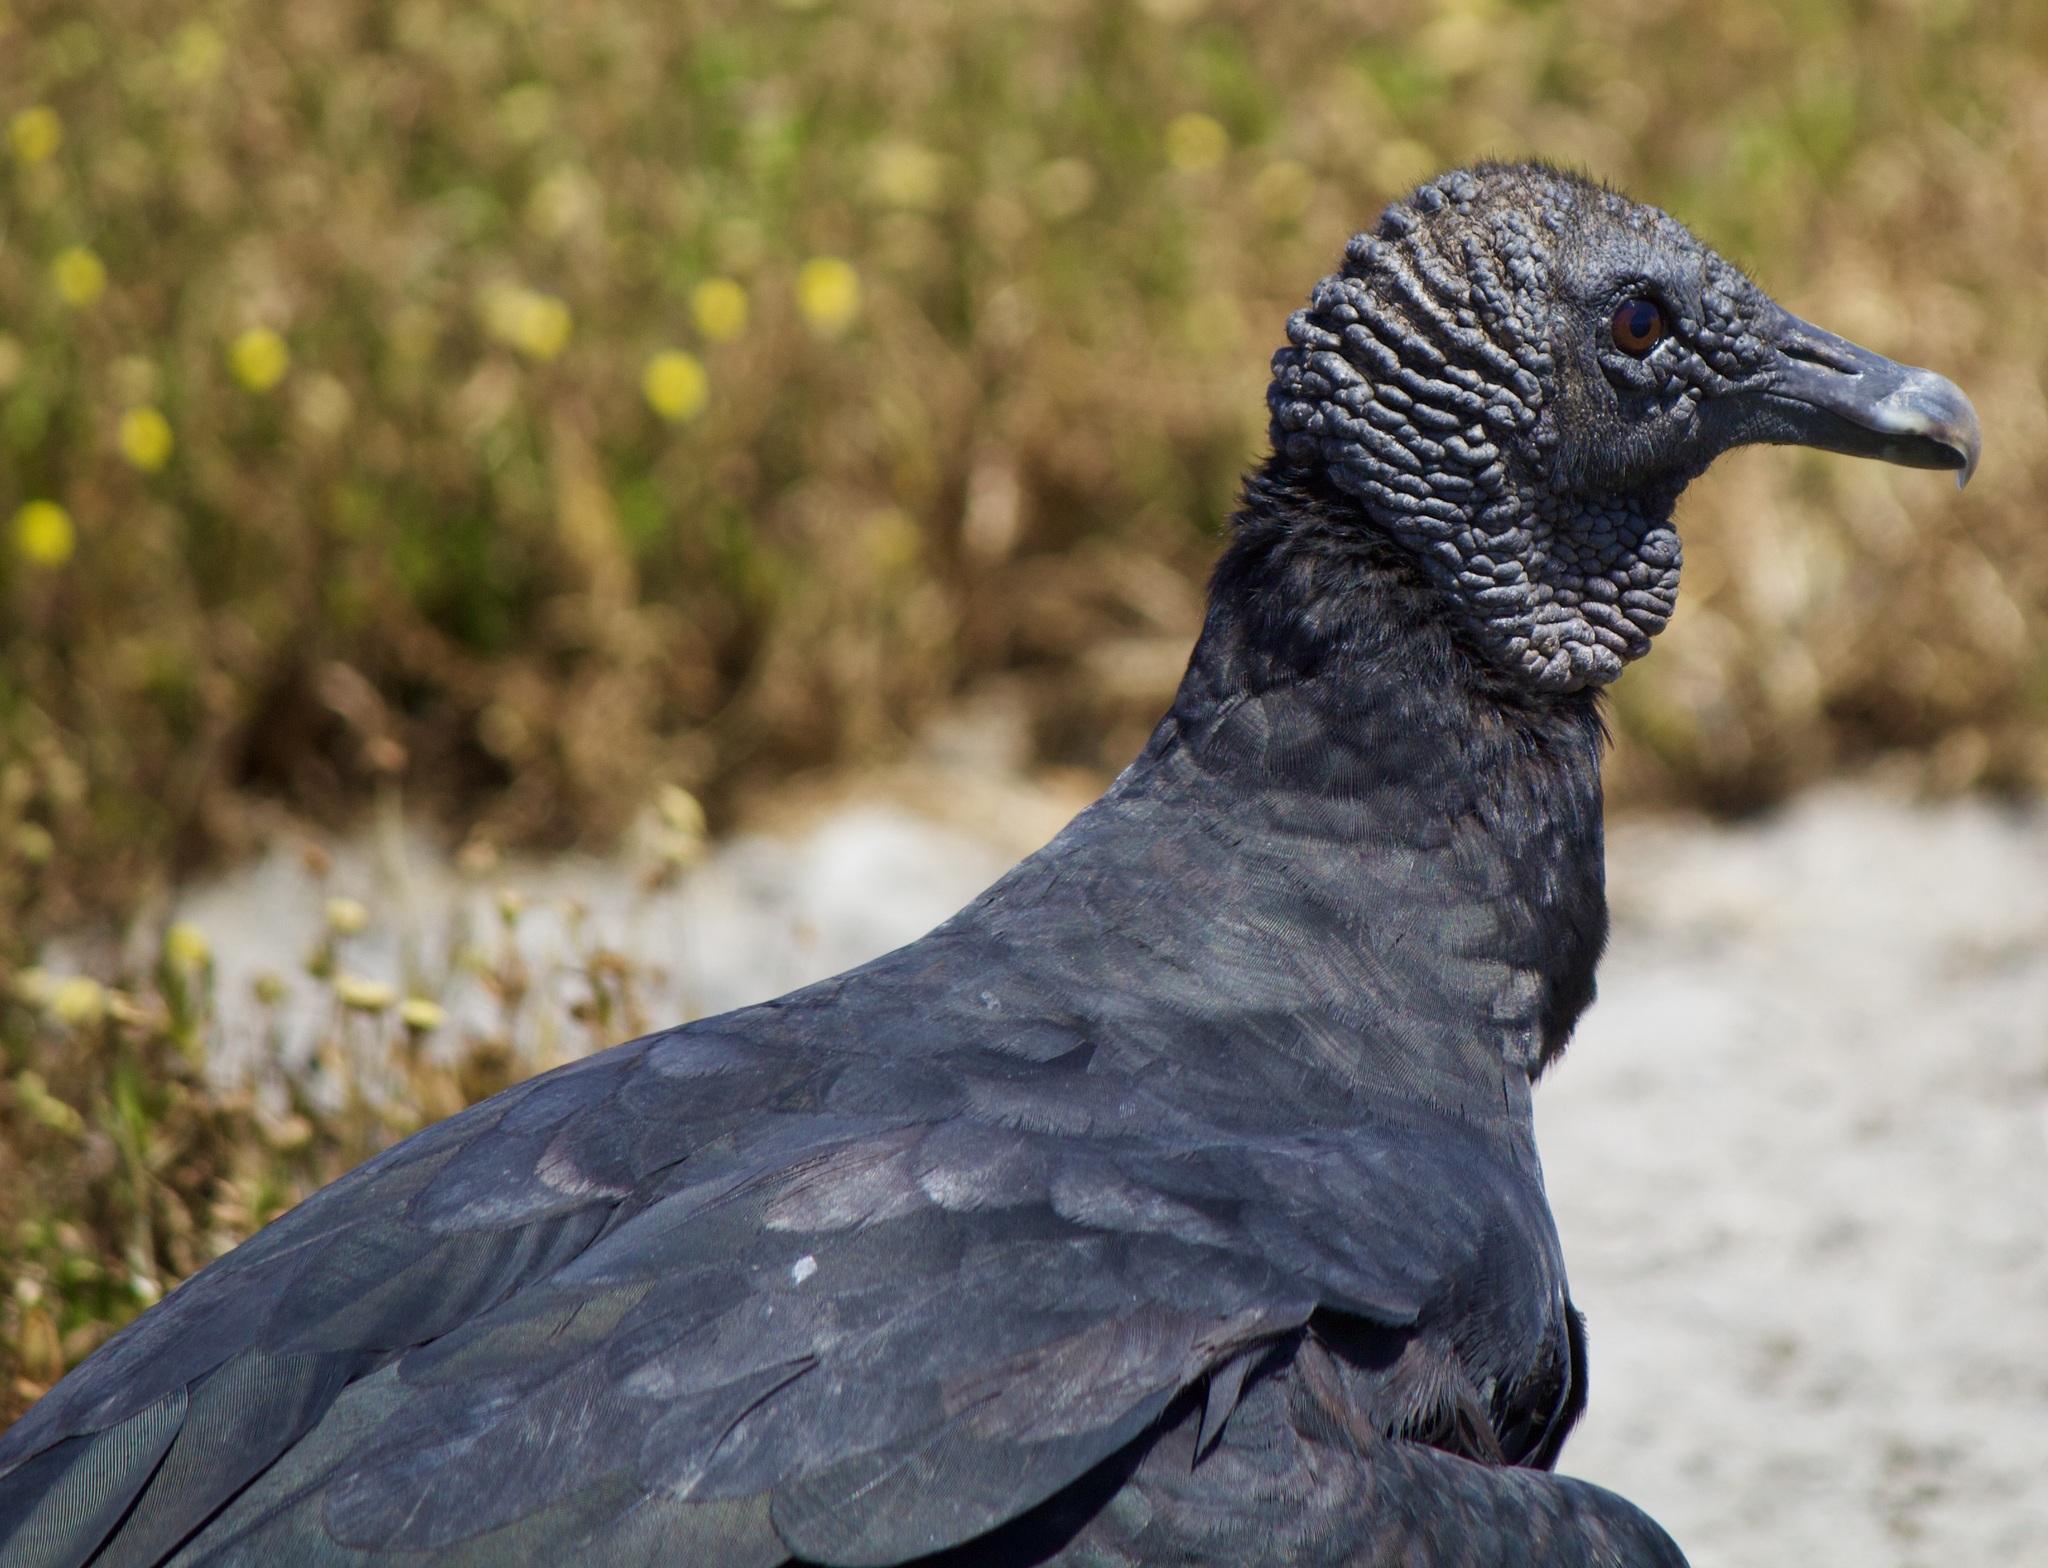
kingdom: Animalia
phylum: Chordata
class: Aves
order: Accipitriformes
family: Cathartidae
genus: Coragyps
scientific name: Coragyps atratus
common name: Black vulture
